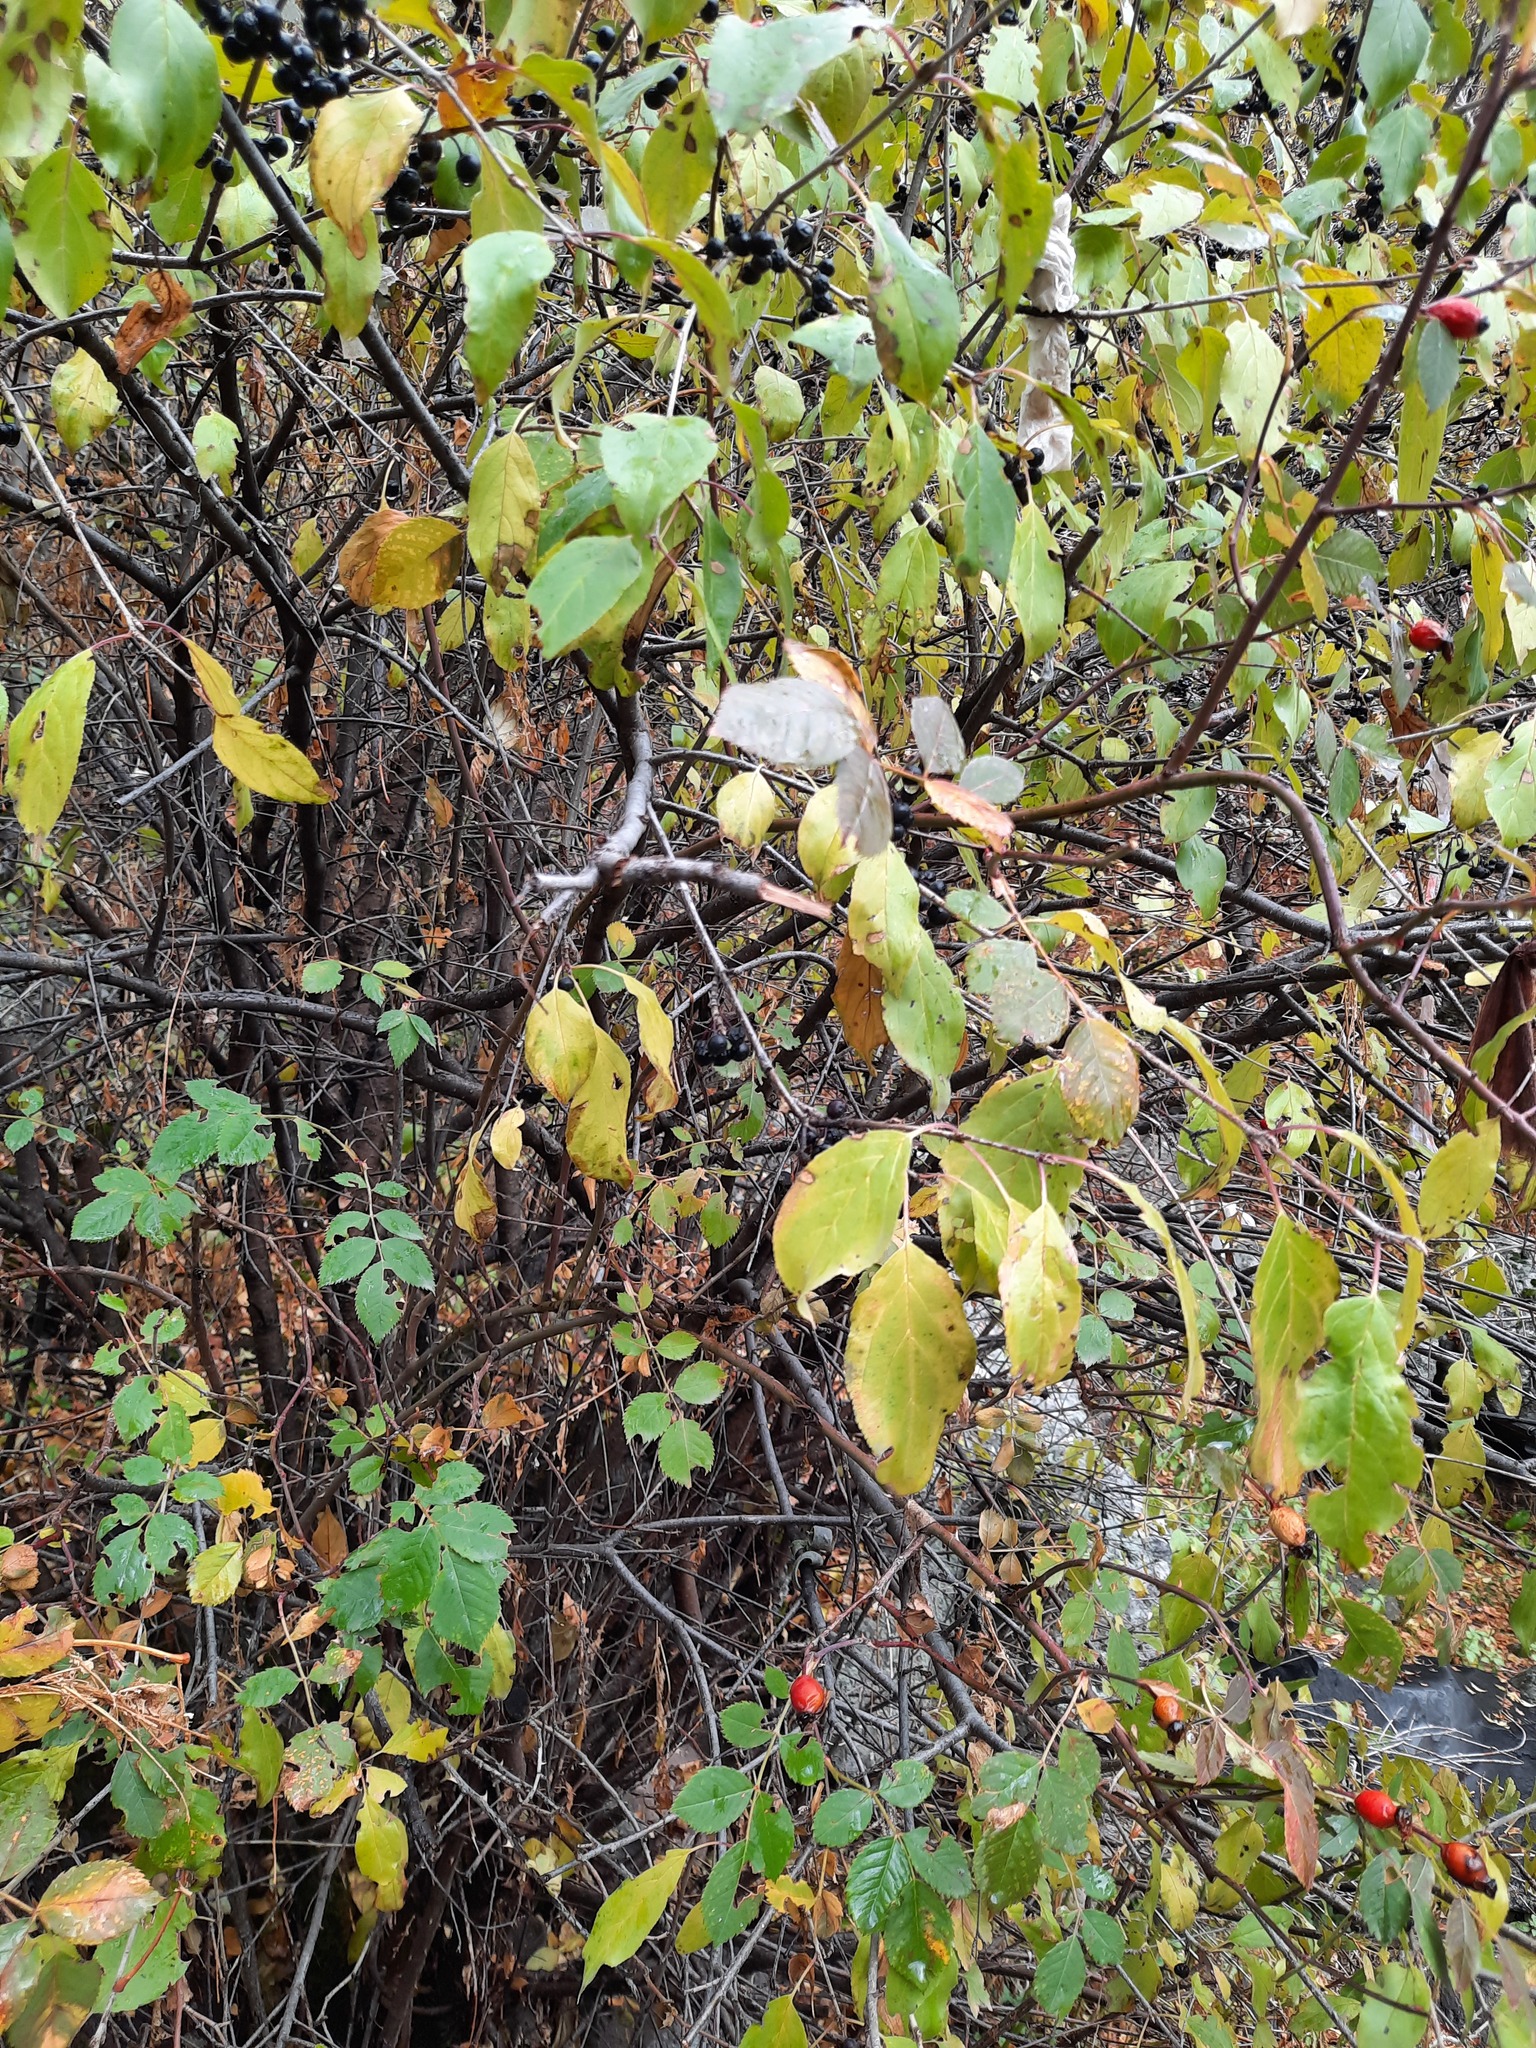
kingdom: Plantae
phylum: Tracheophyta
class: Magnoliopsida
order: Rosales
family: Rhamnaceae
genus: Rhamnus
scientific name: Rhamnus cathartica
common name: Common buckthorn
